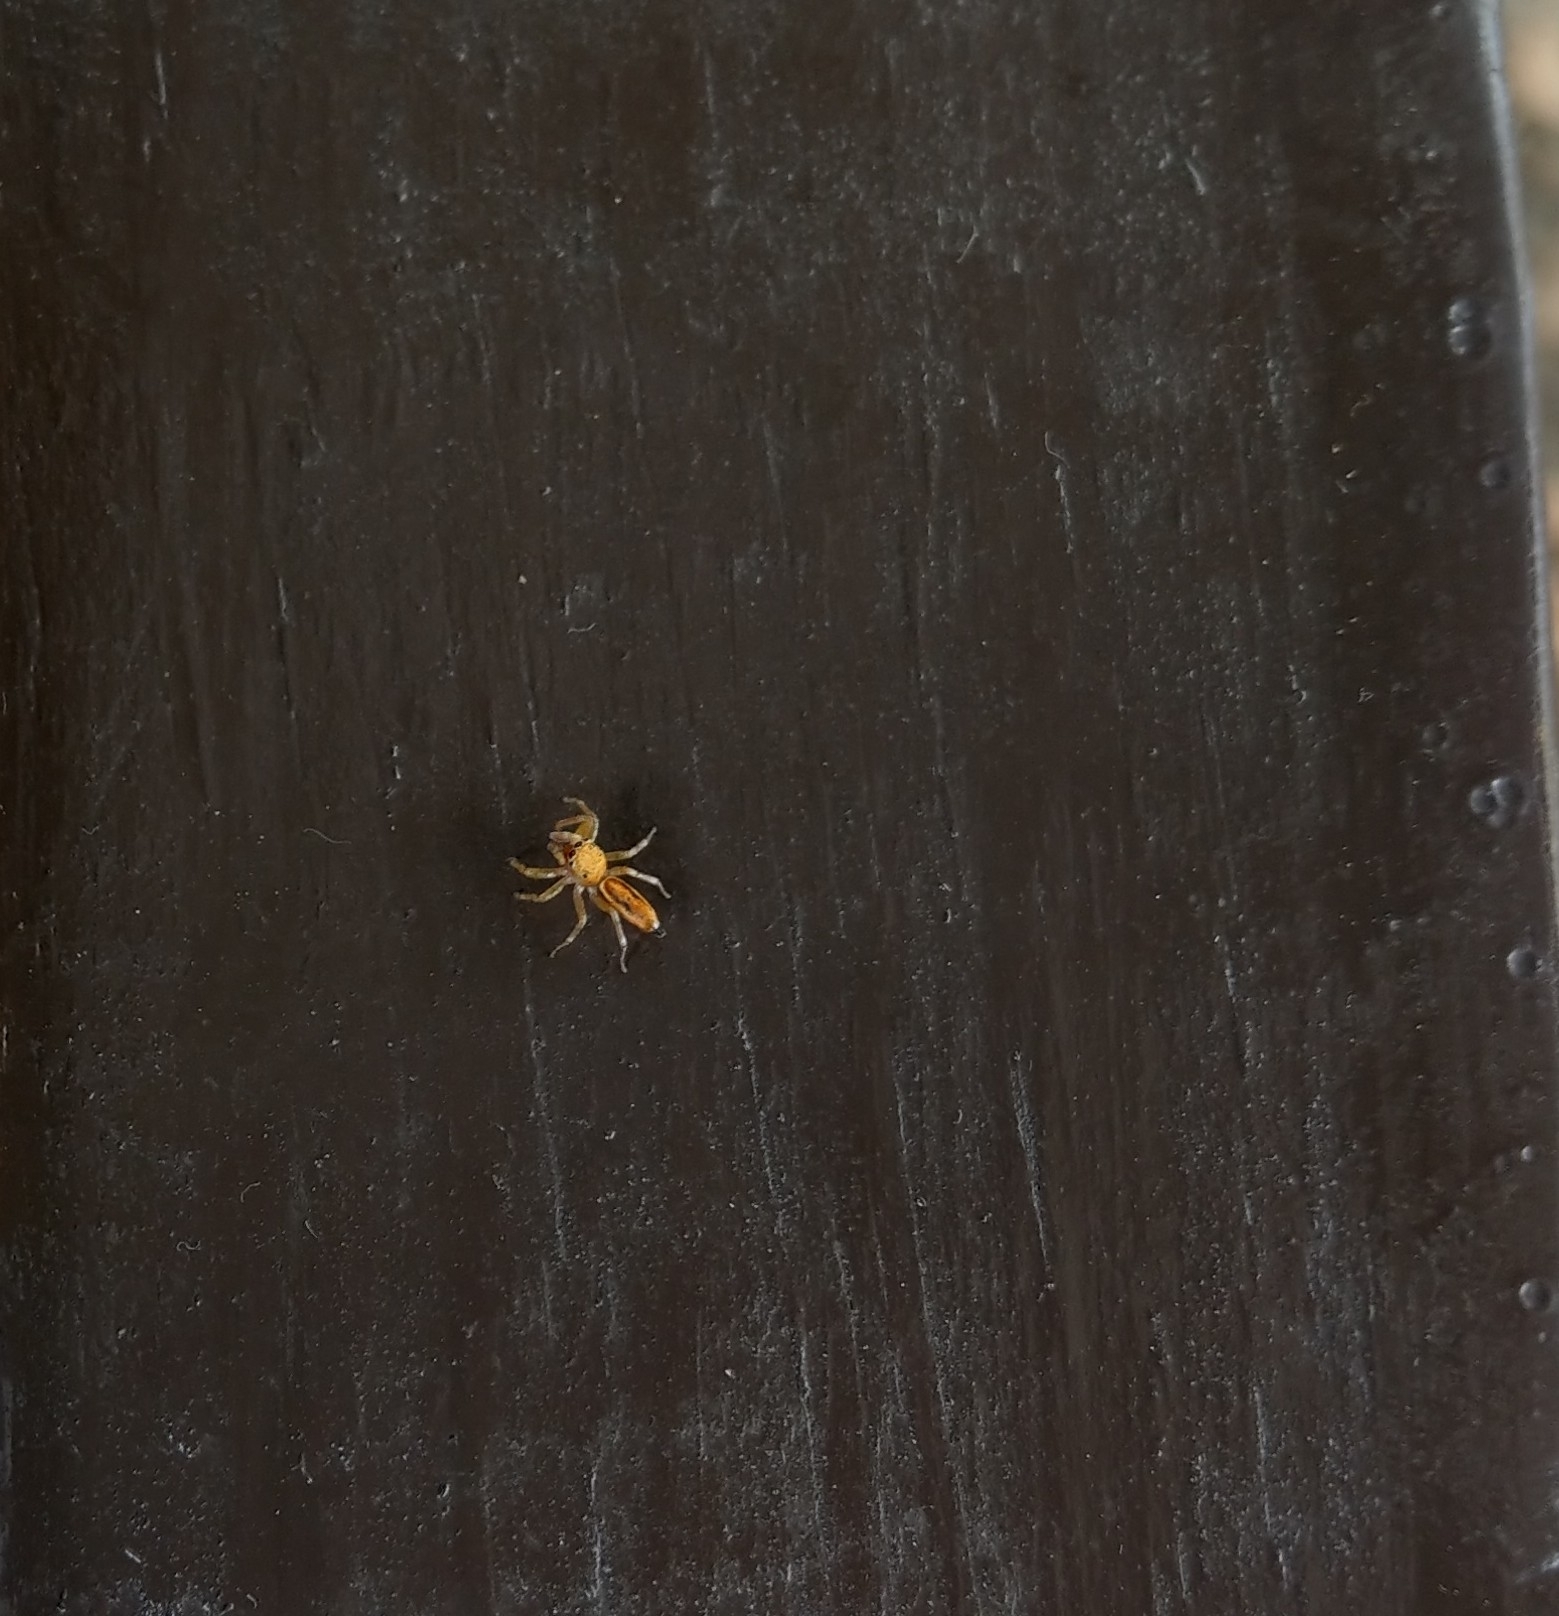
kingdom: Animalia
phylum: Arthropoda
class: Arachnida
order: Araneae
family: Salticidae
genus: Cosmophasis
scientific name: Cosmophasis lami
